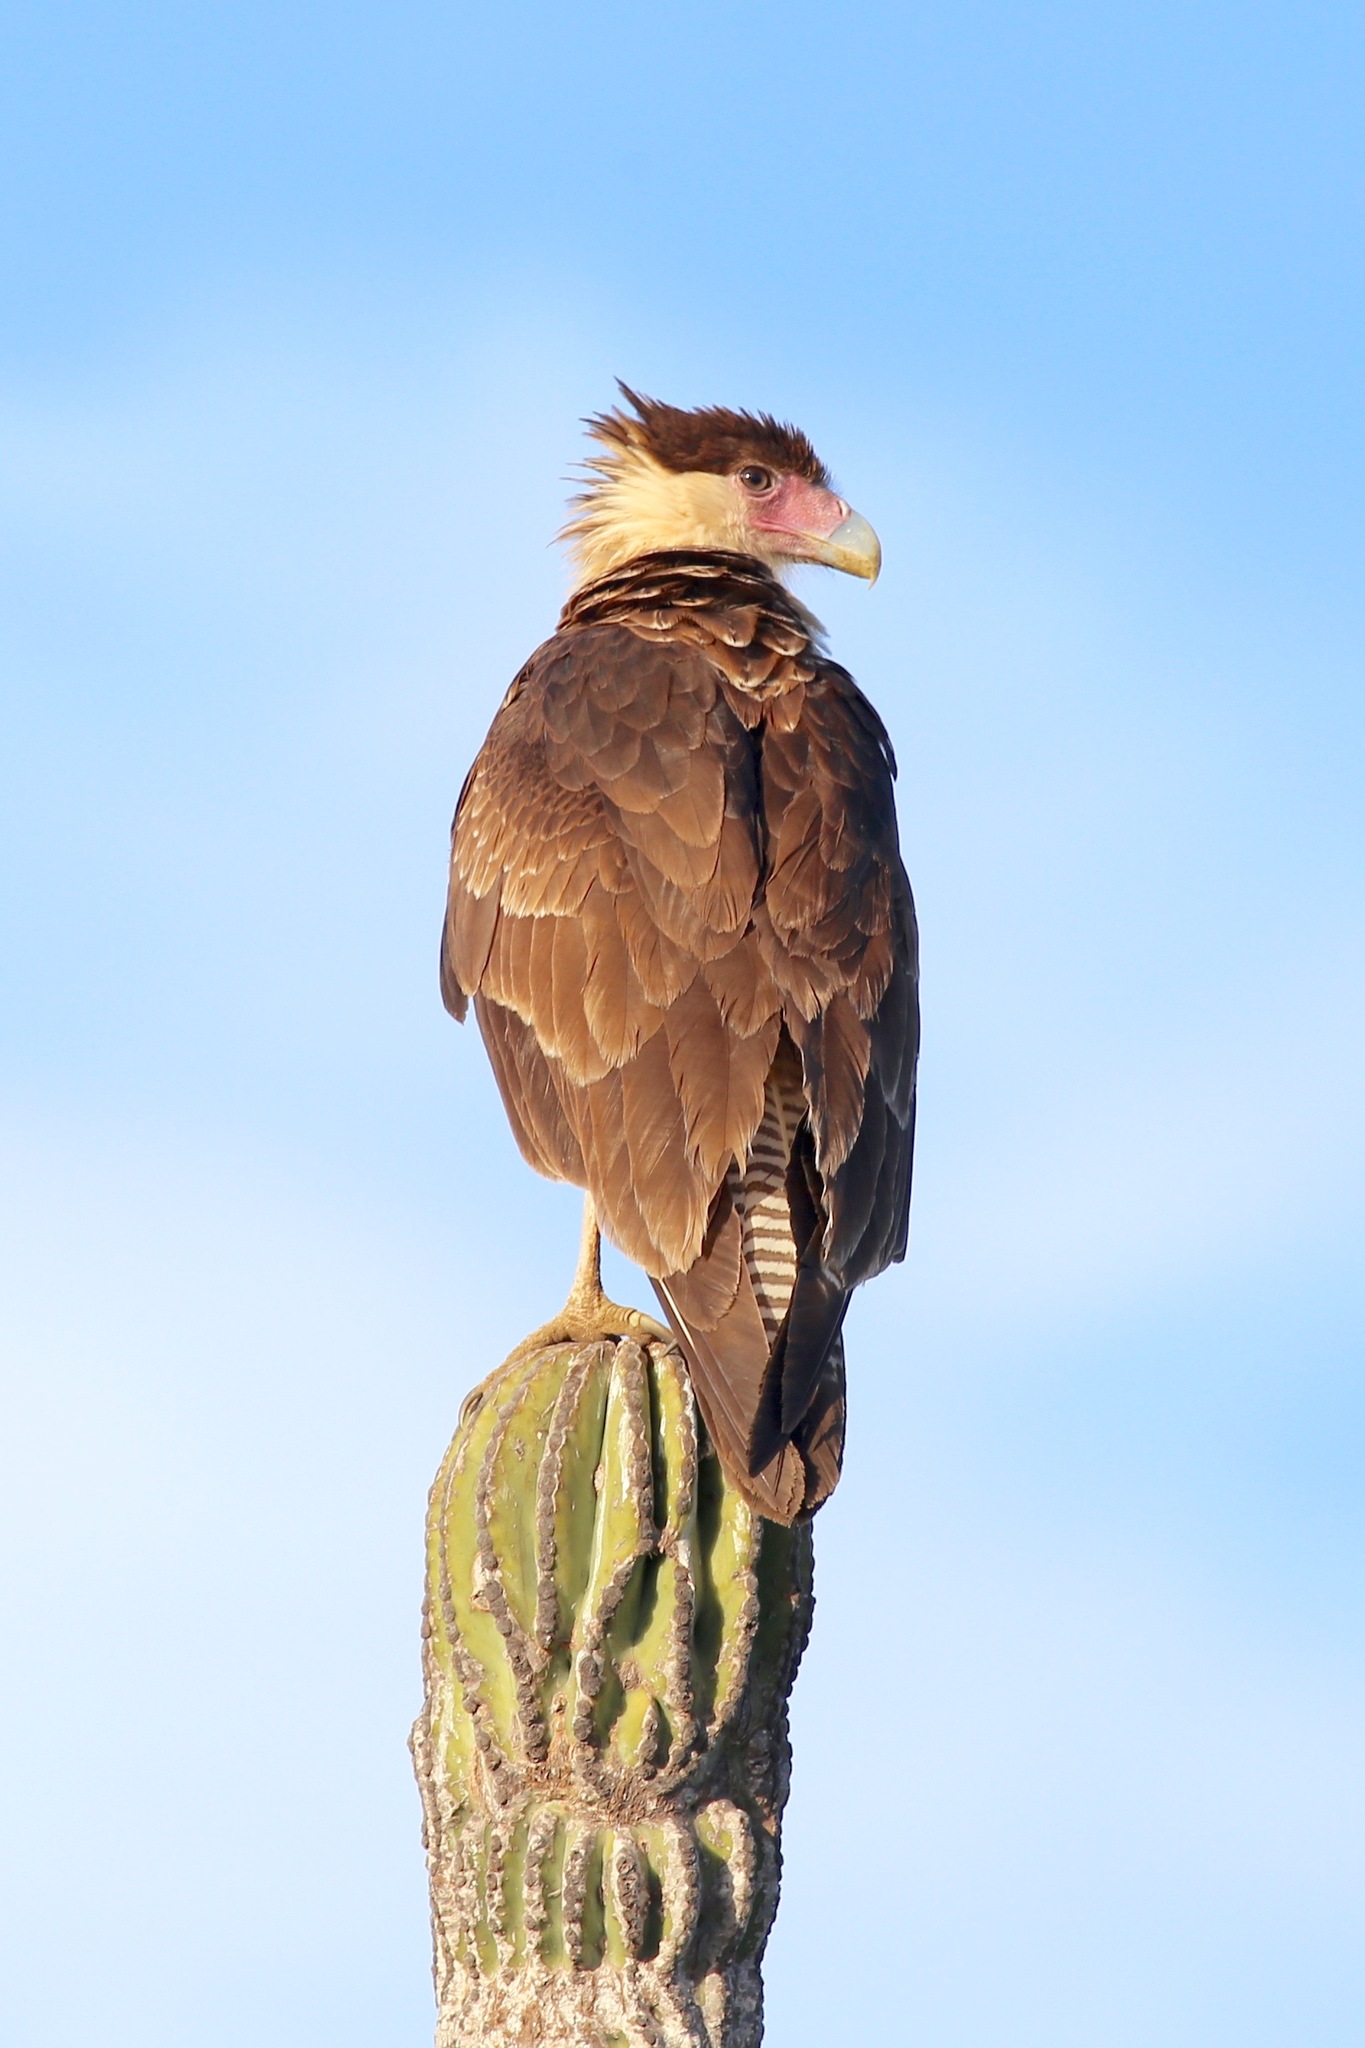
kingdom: Animalia
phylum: Chordata
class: Aves
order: Falconiformes
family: Falconidae
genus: Caracara
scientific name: Caracara plancus
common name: Southern caracara
